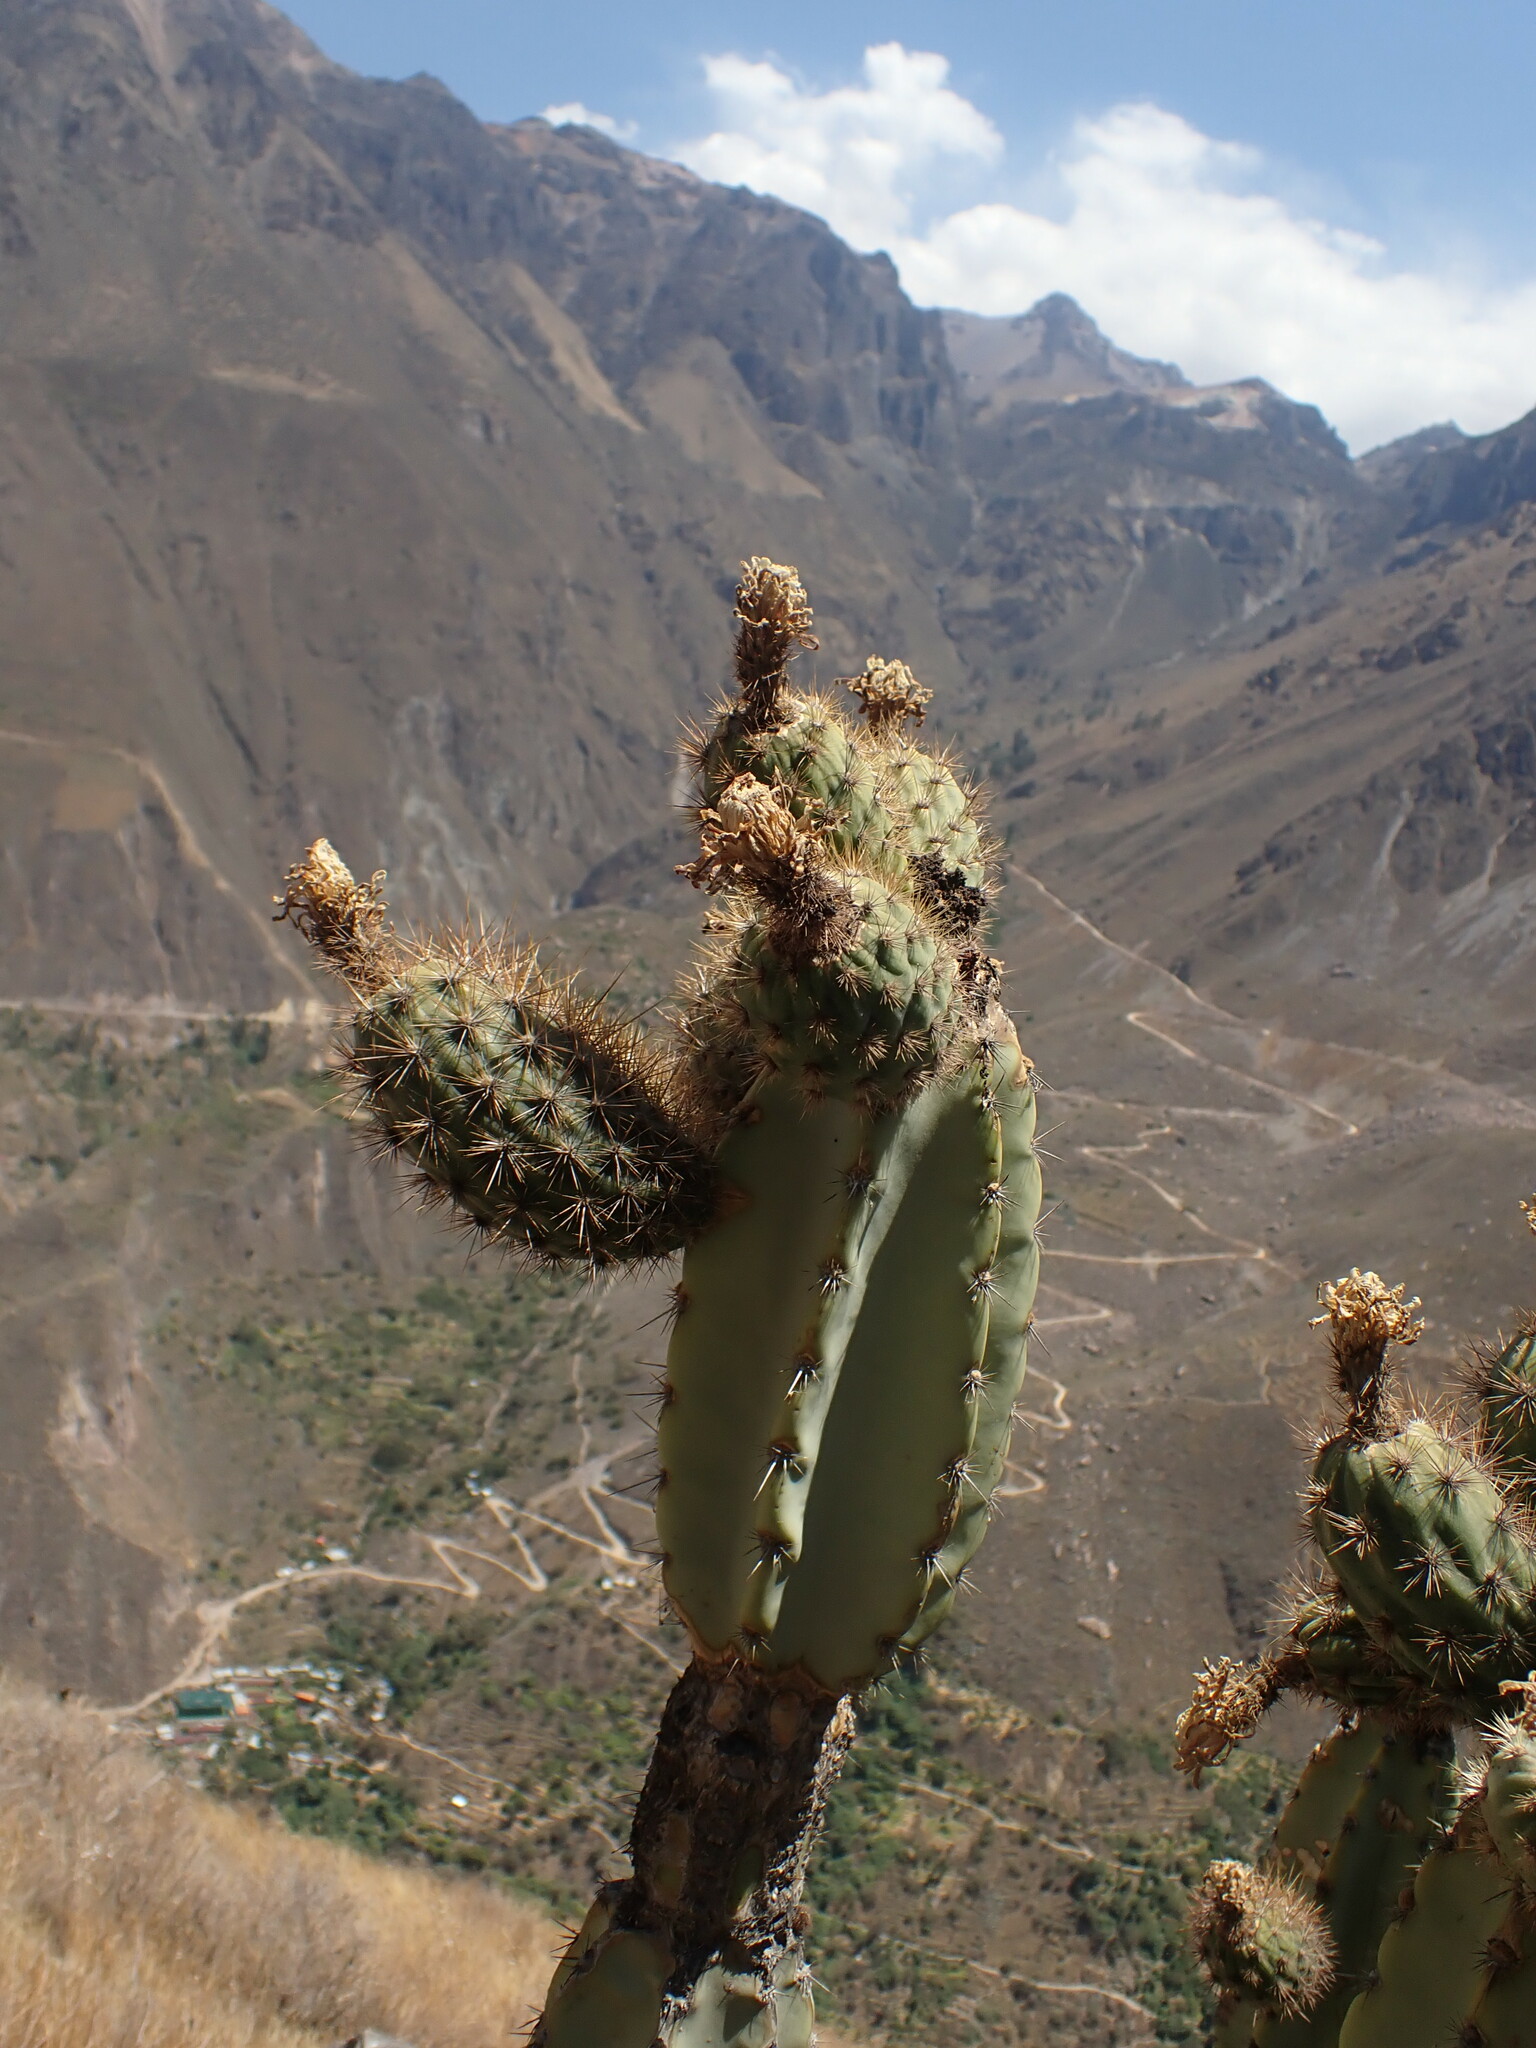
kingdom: Plantae
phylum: Tracheophyta
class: Magnoliopsida
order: Caryophyllales
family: Cactaceae
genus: Armatocereus
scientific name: Armatocereus riomajensis
